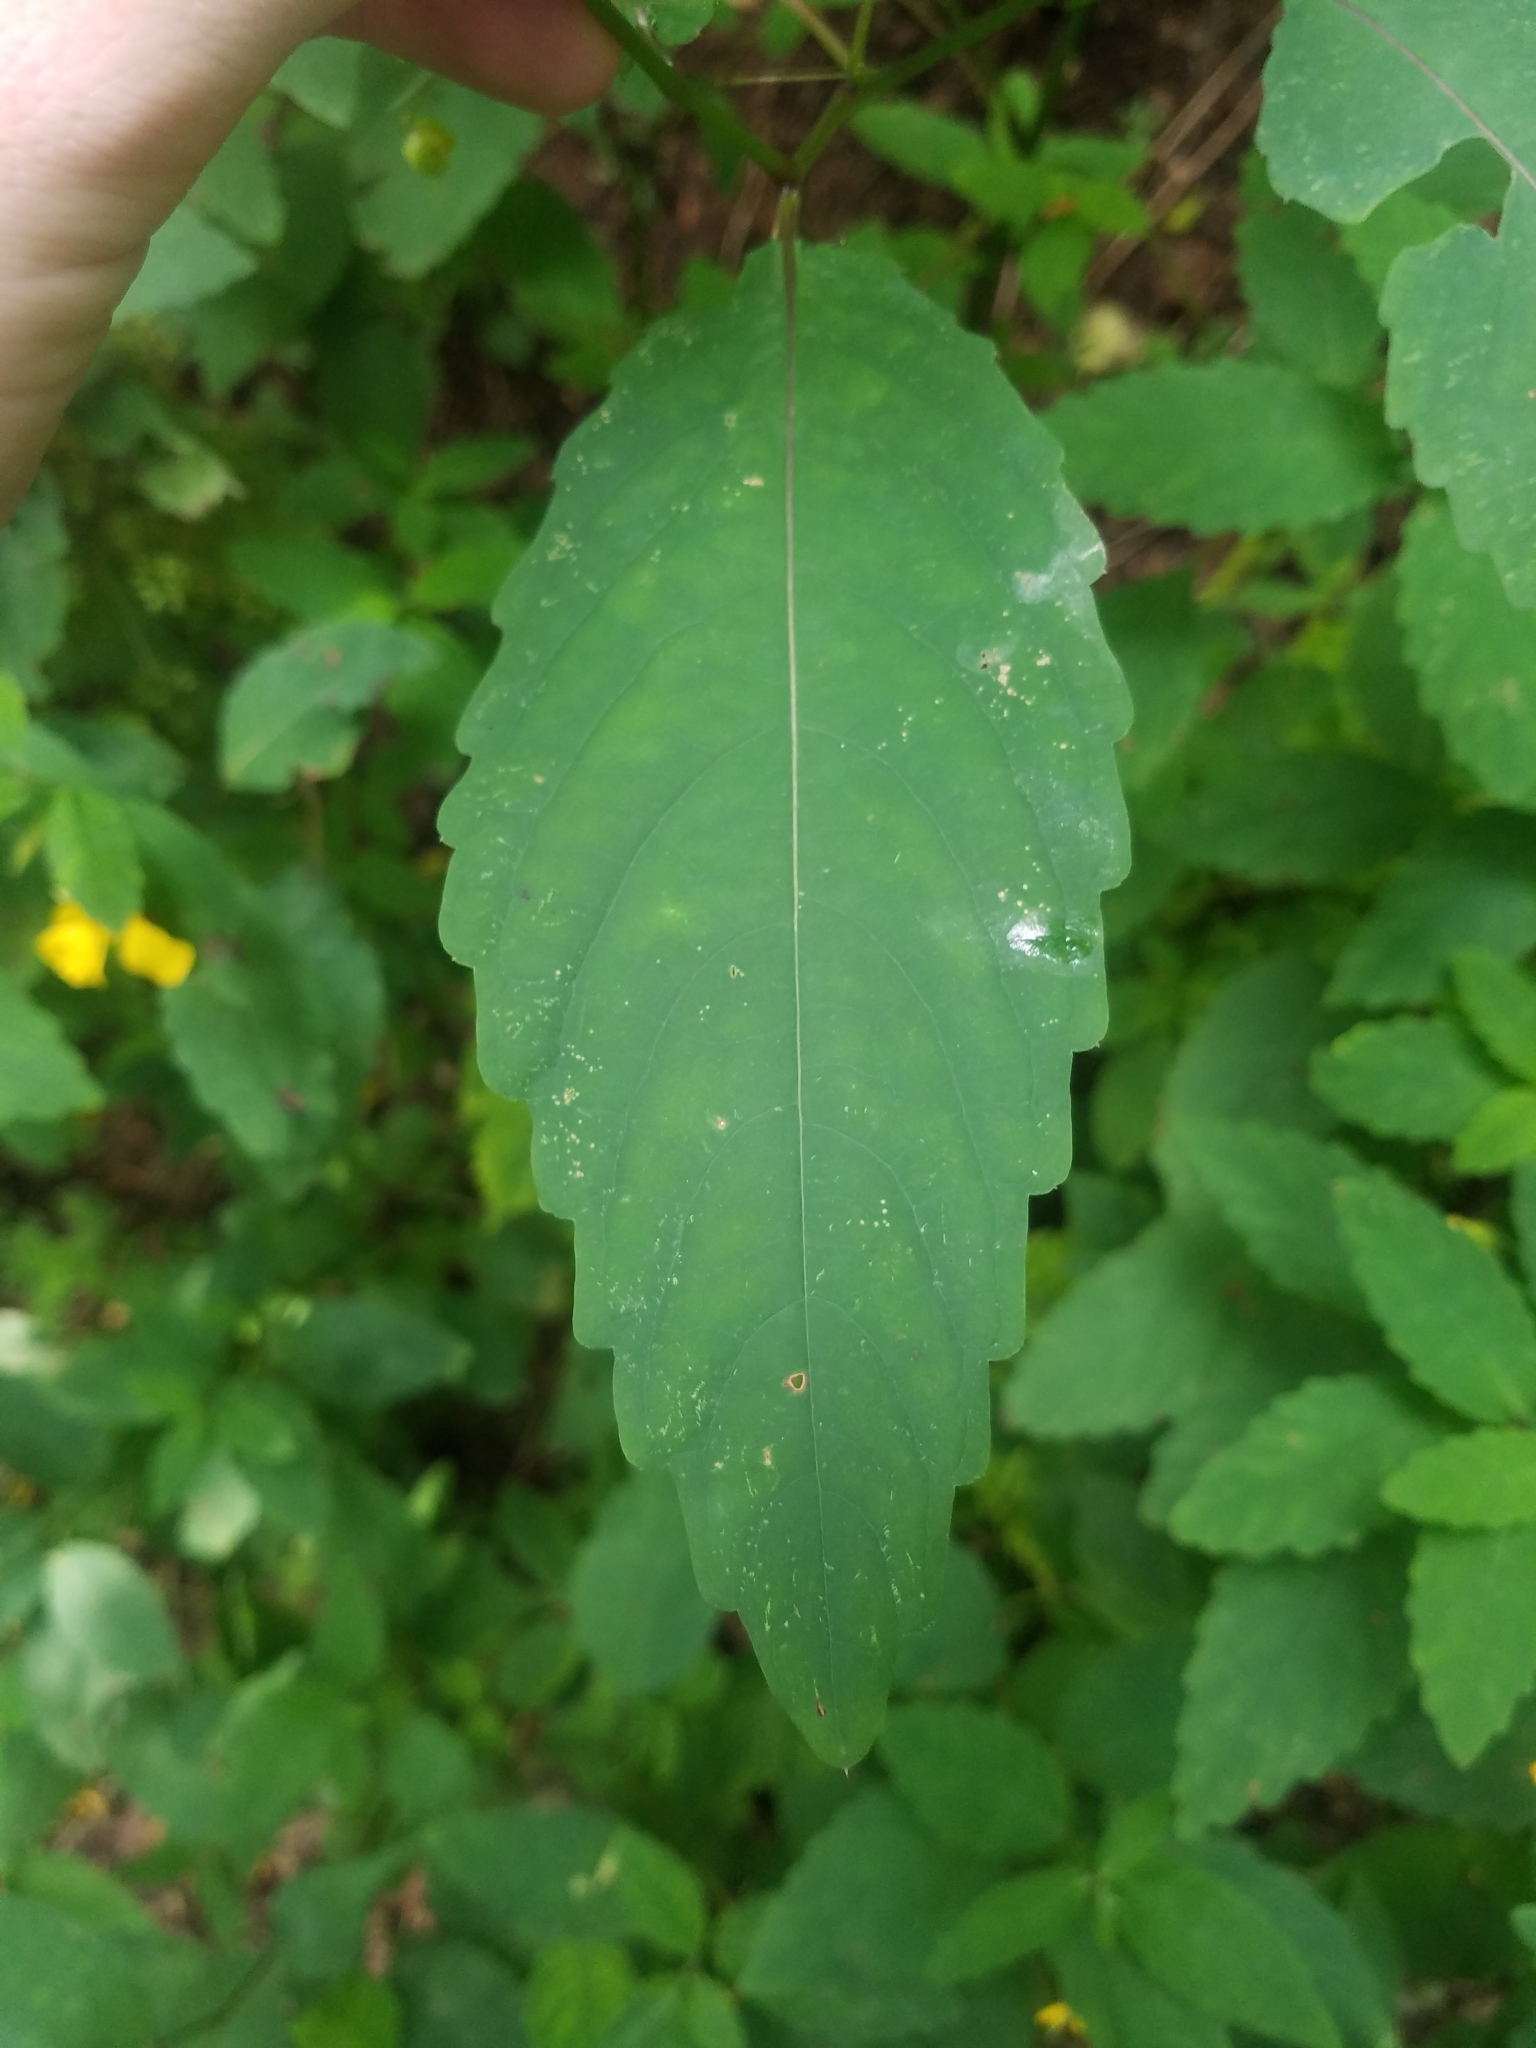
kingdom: Plantae
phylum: Tracheophyta
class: Magnoliopsida
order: Ericales
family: Balsaminaceae
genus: Impatiens
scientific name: Impatiens pallida
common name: Pale snapweed
